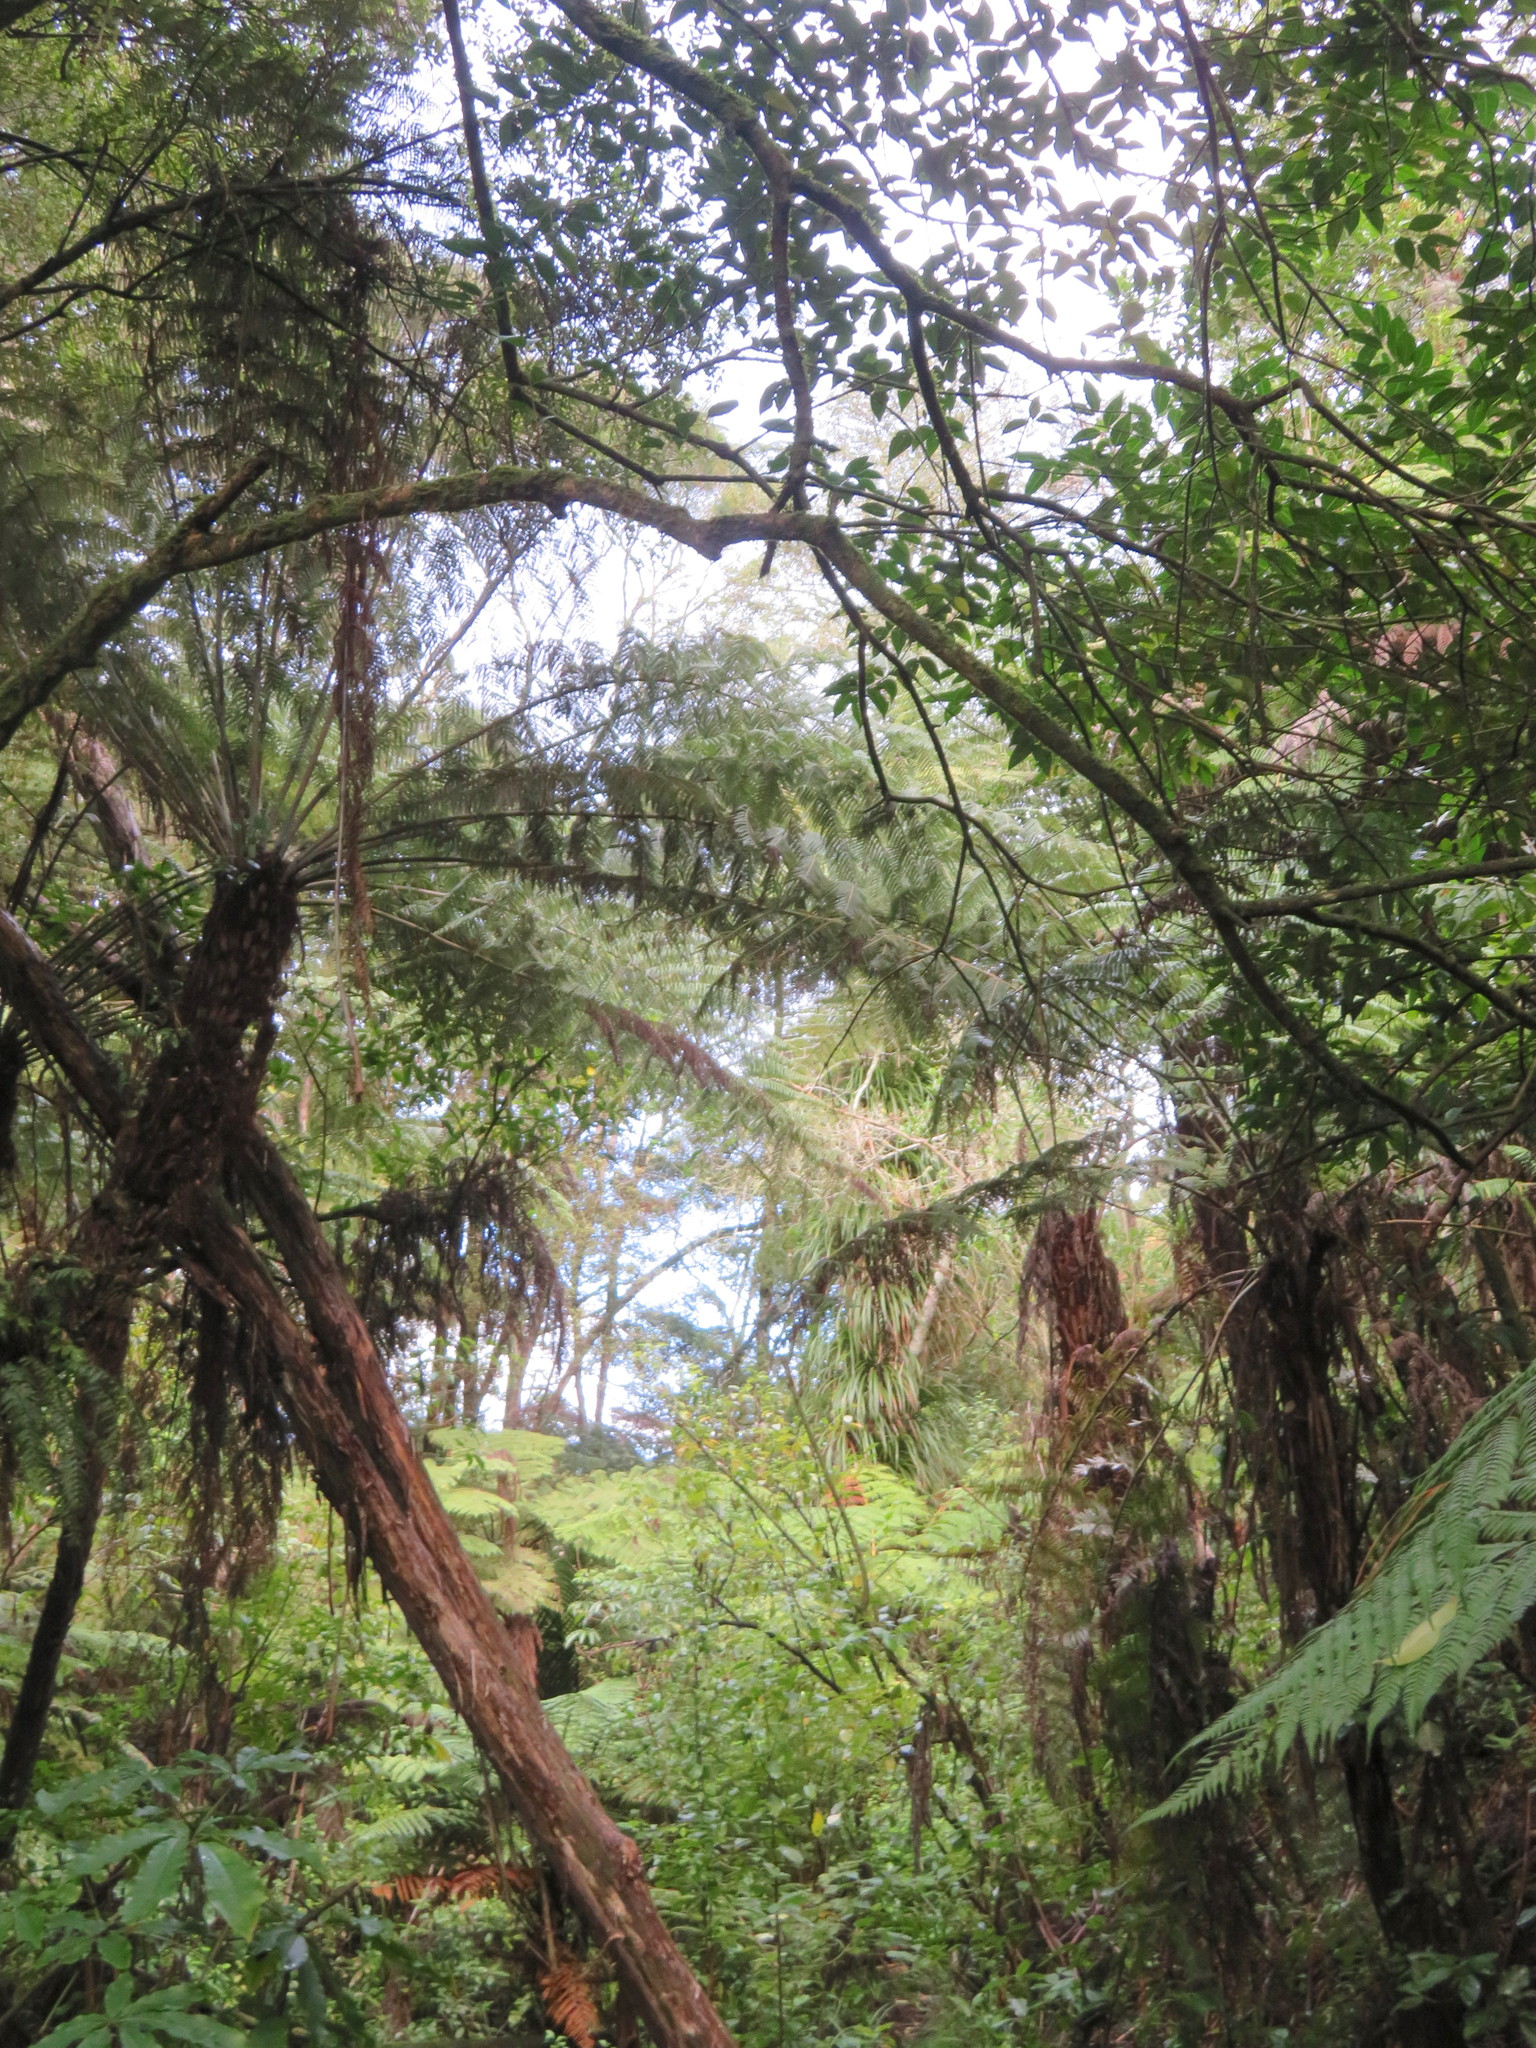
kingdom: Plantae
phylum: Tracheophyta
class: Polypodiopsida
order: Cyatheales
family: Cyatheaceae
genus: Alsophila
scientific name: Alsophila dealbata
